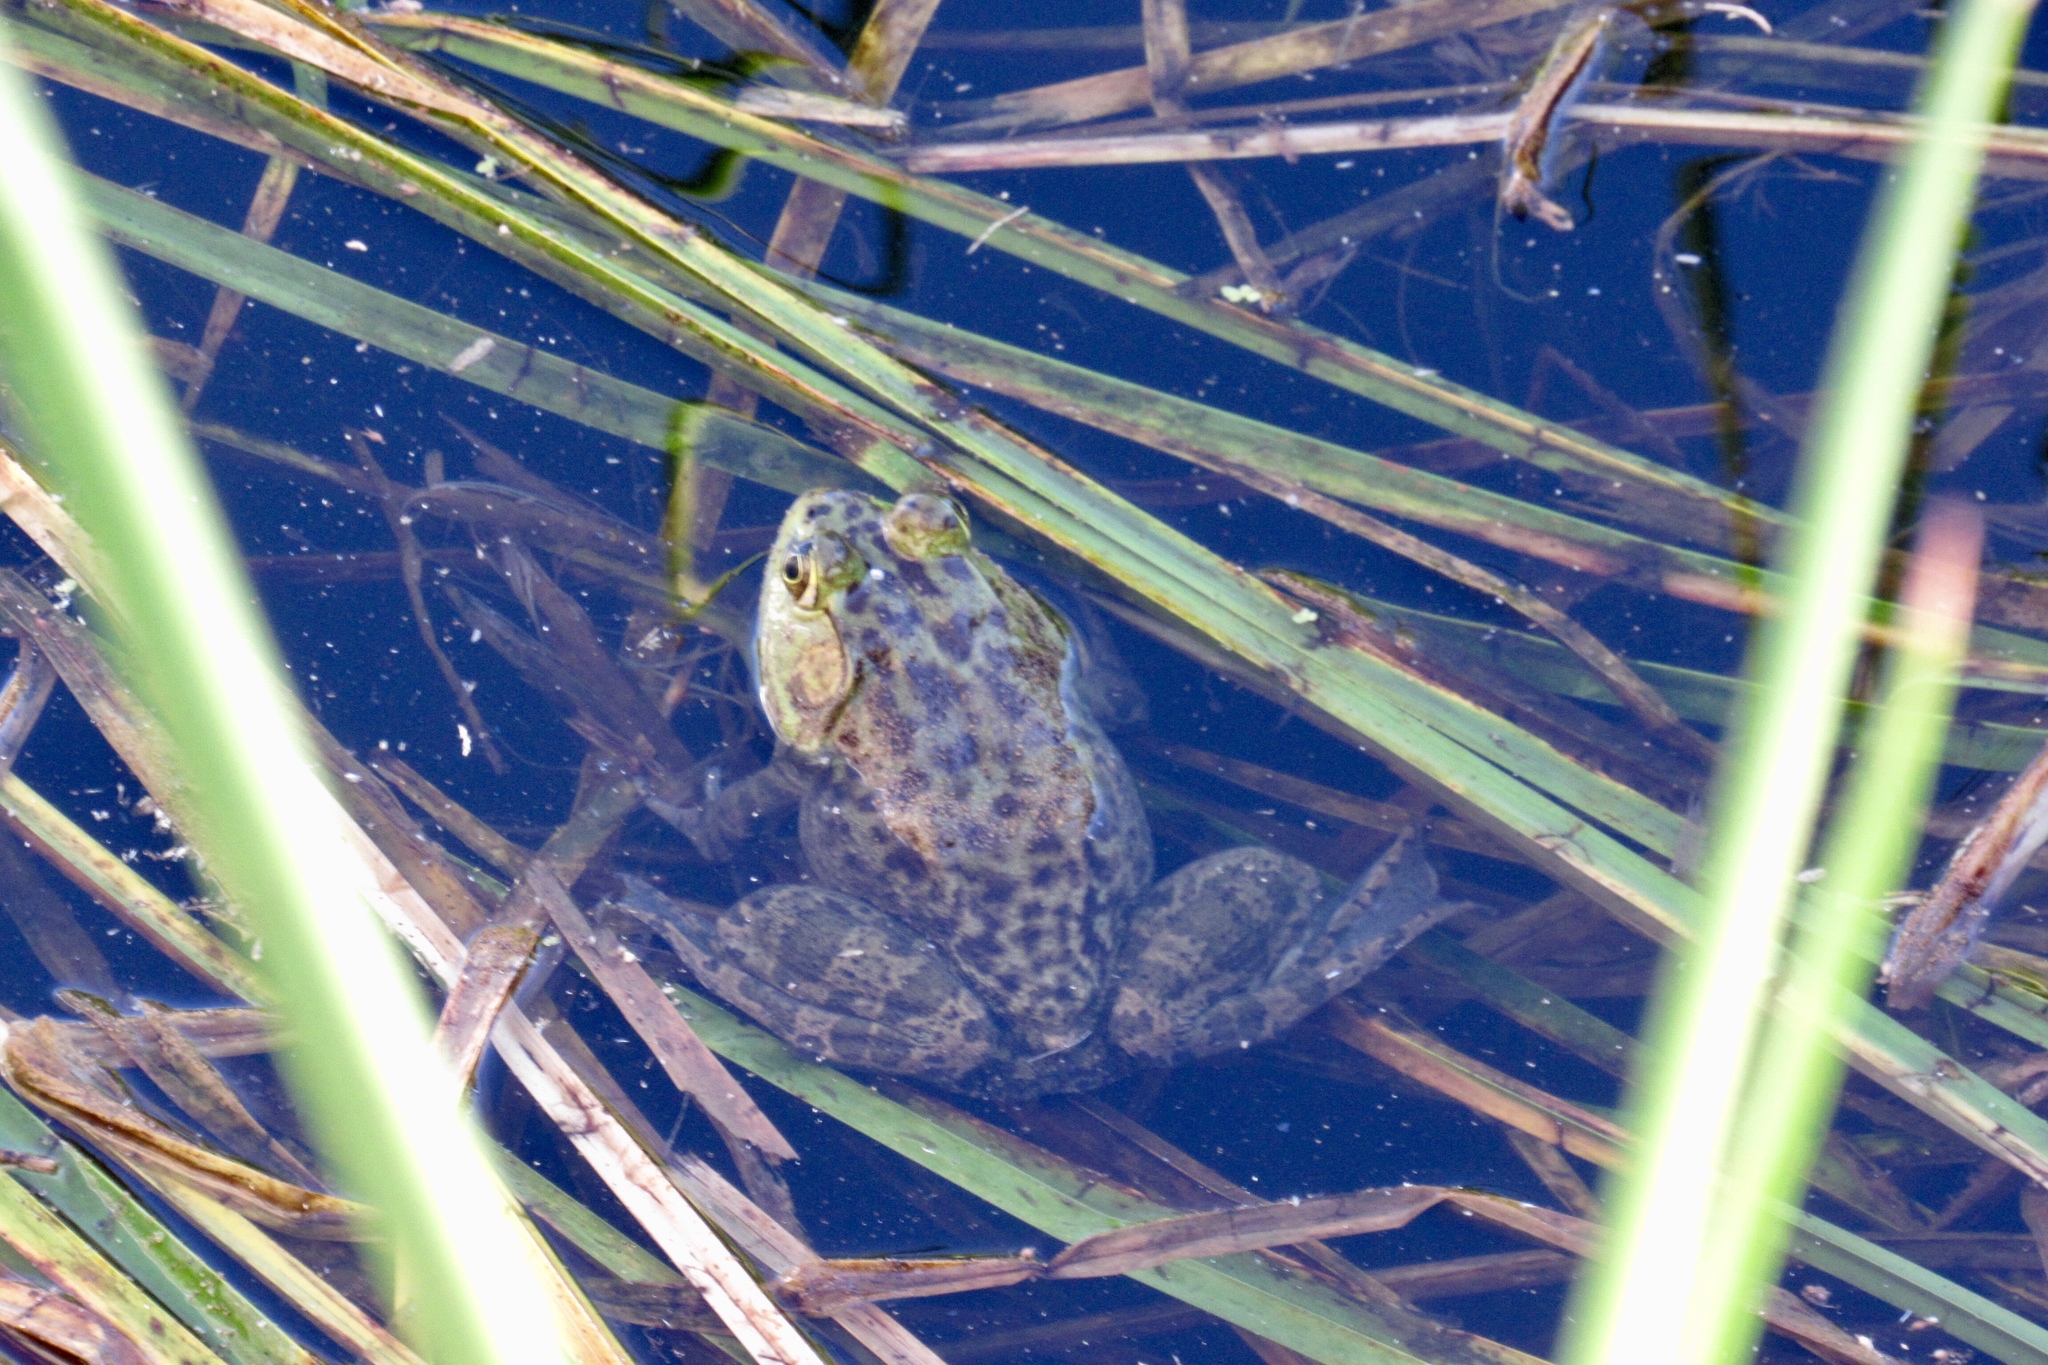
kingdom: Animalia
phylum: Chordata
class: Amphibia
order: Anura
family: Ranidae
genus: Lithobates
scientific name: Lithobates catesbeianus
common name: American bullfrog
